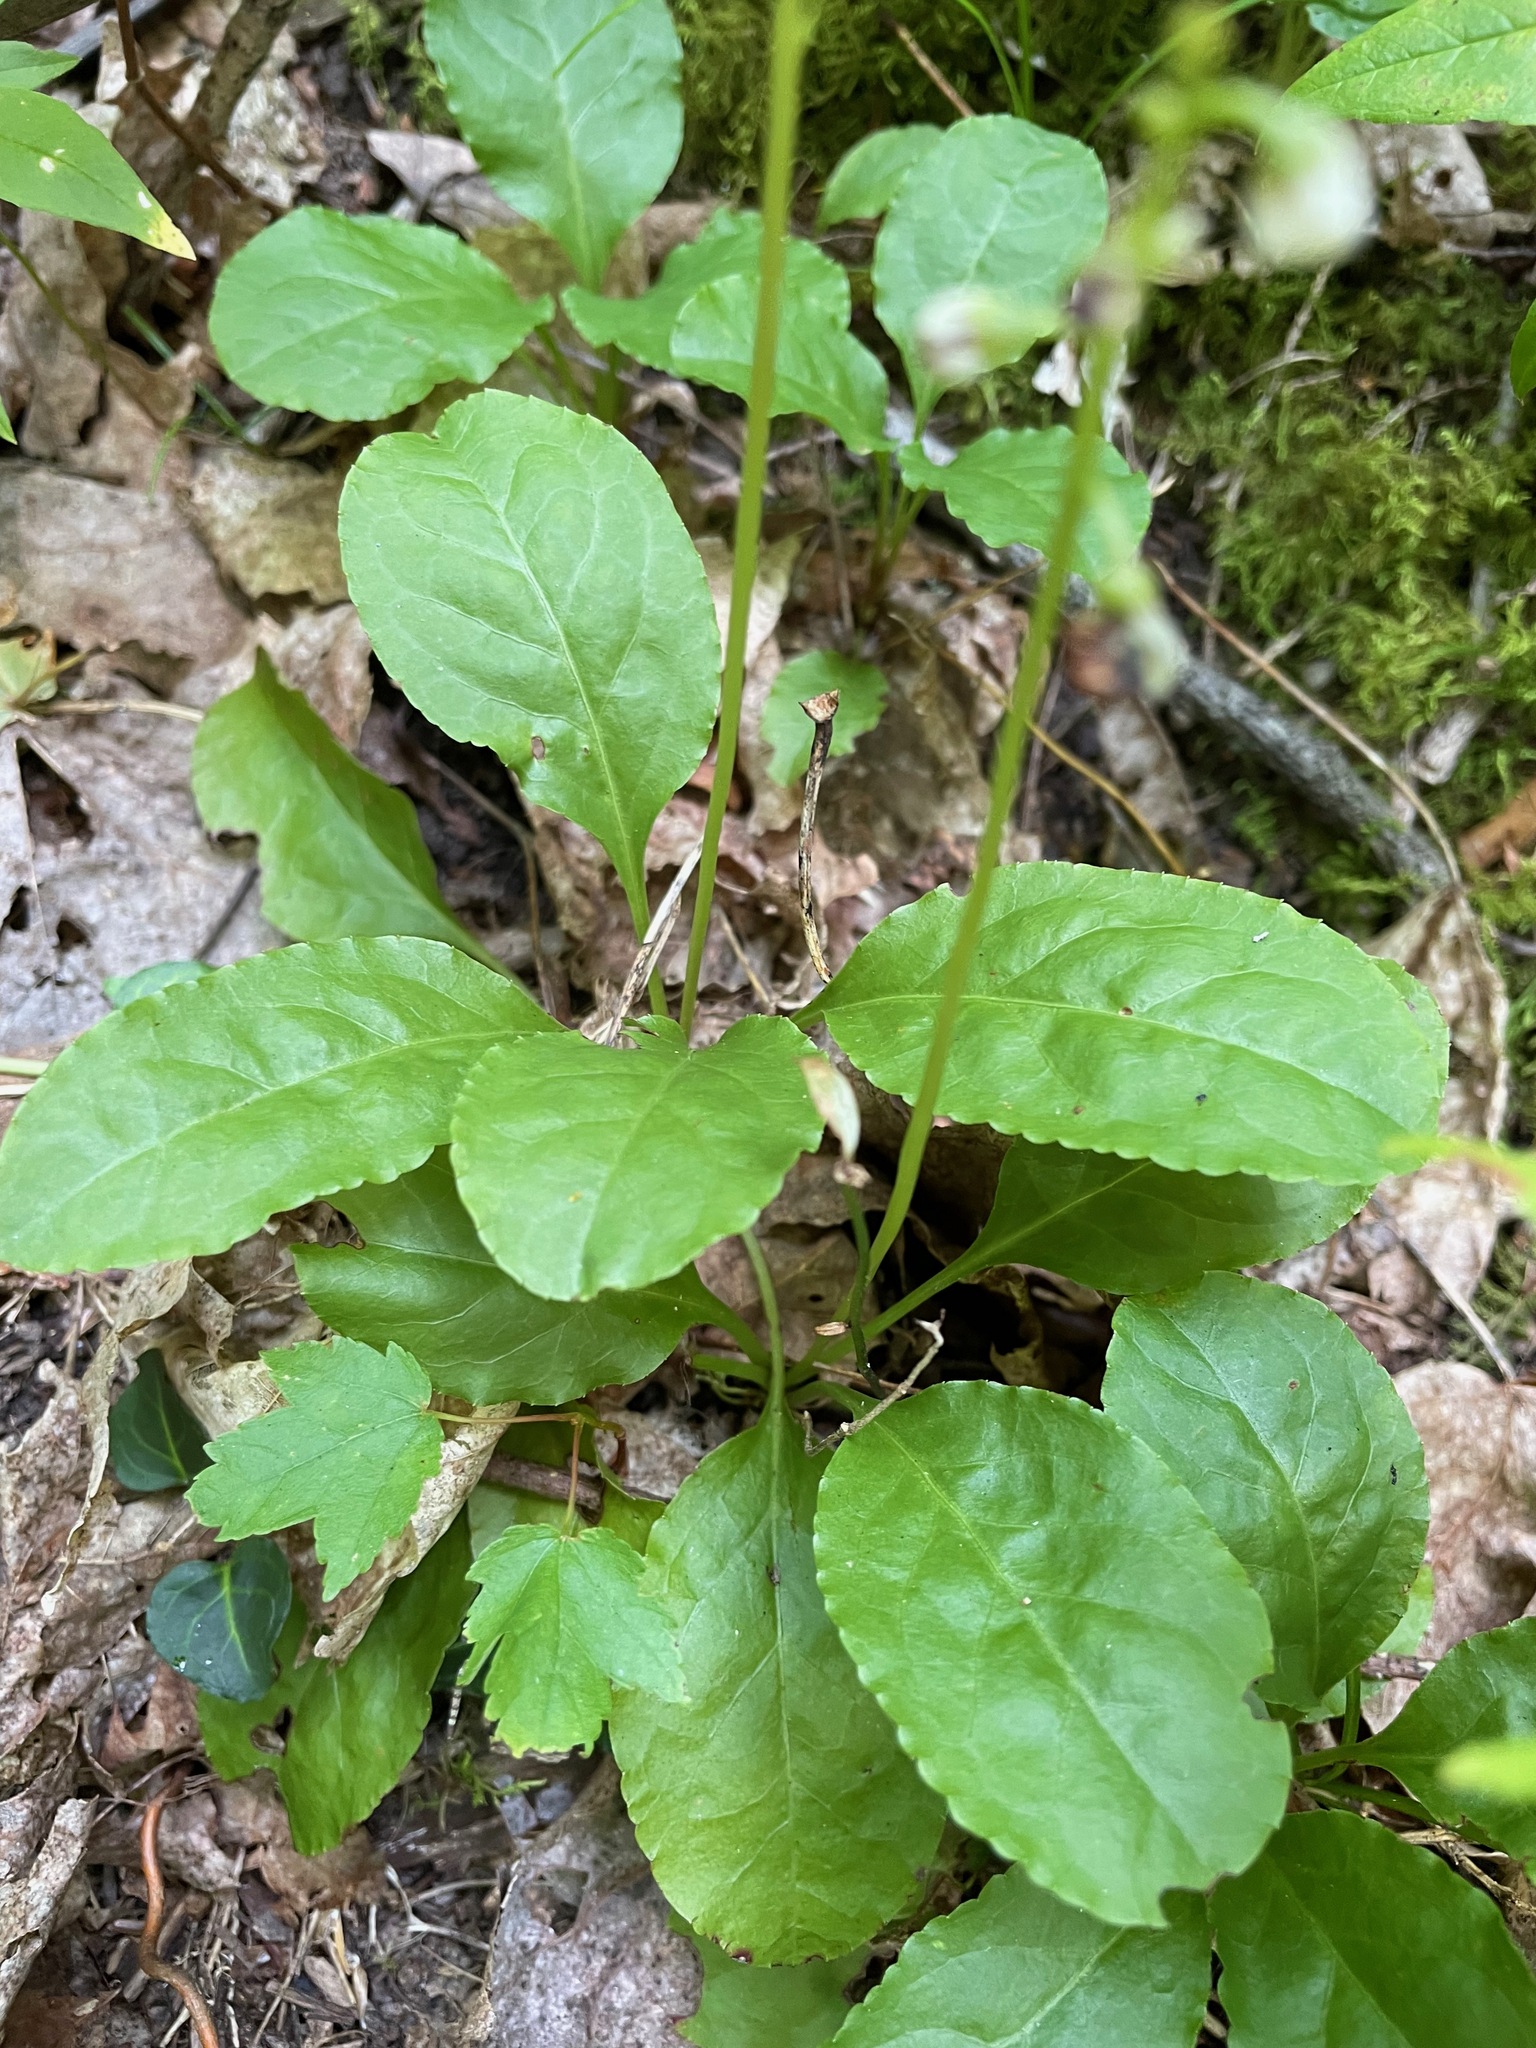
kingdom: Plantae
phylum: Tracheophyta
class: Magnoliopsida
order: Ericales
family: Ericaceae
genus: Pyrola
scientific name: Pyrola elliptica
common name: Shinleaf
